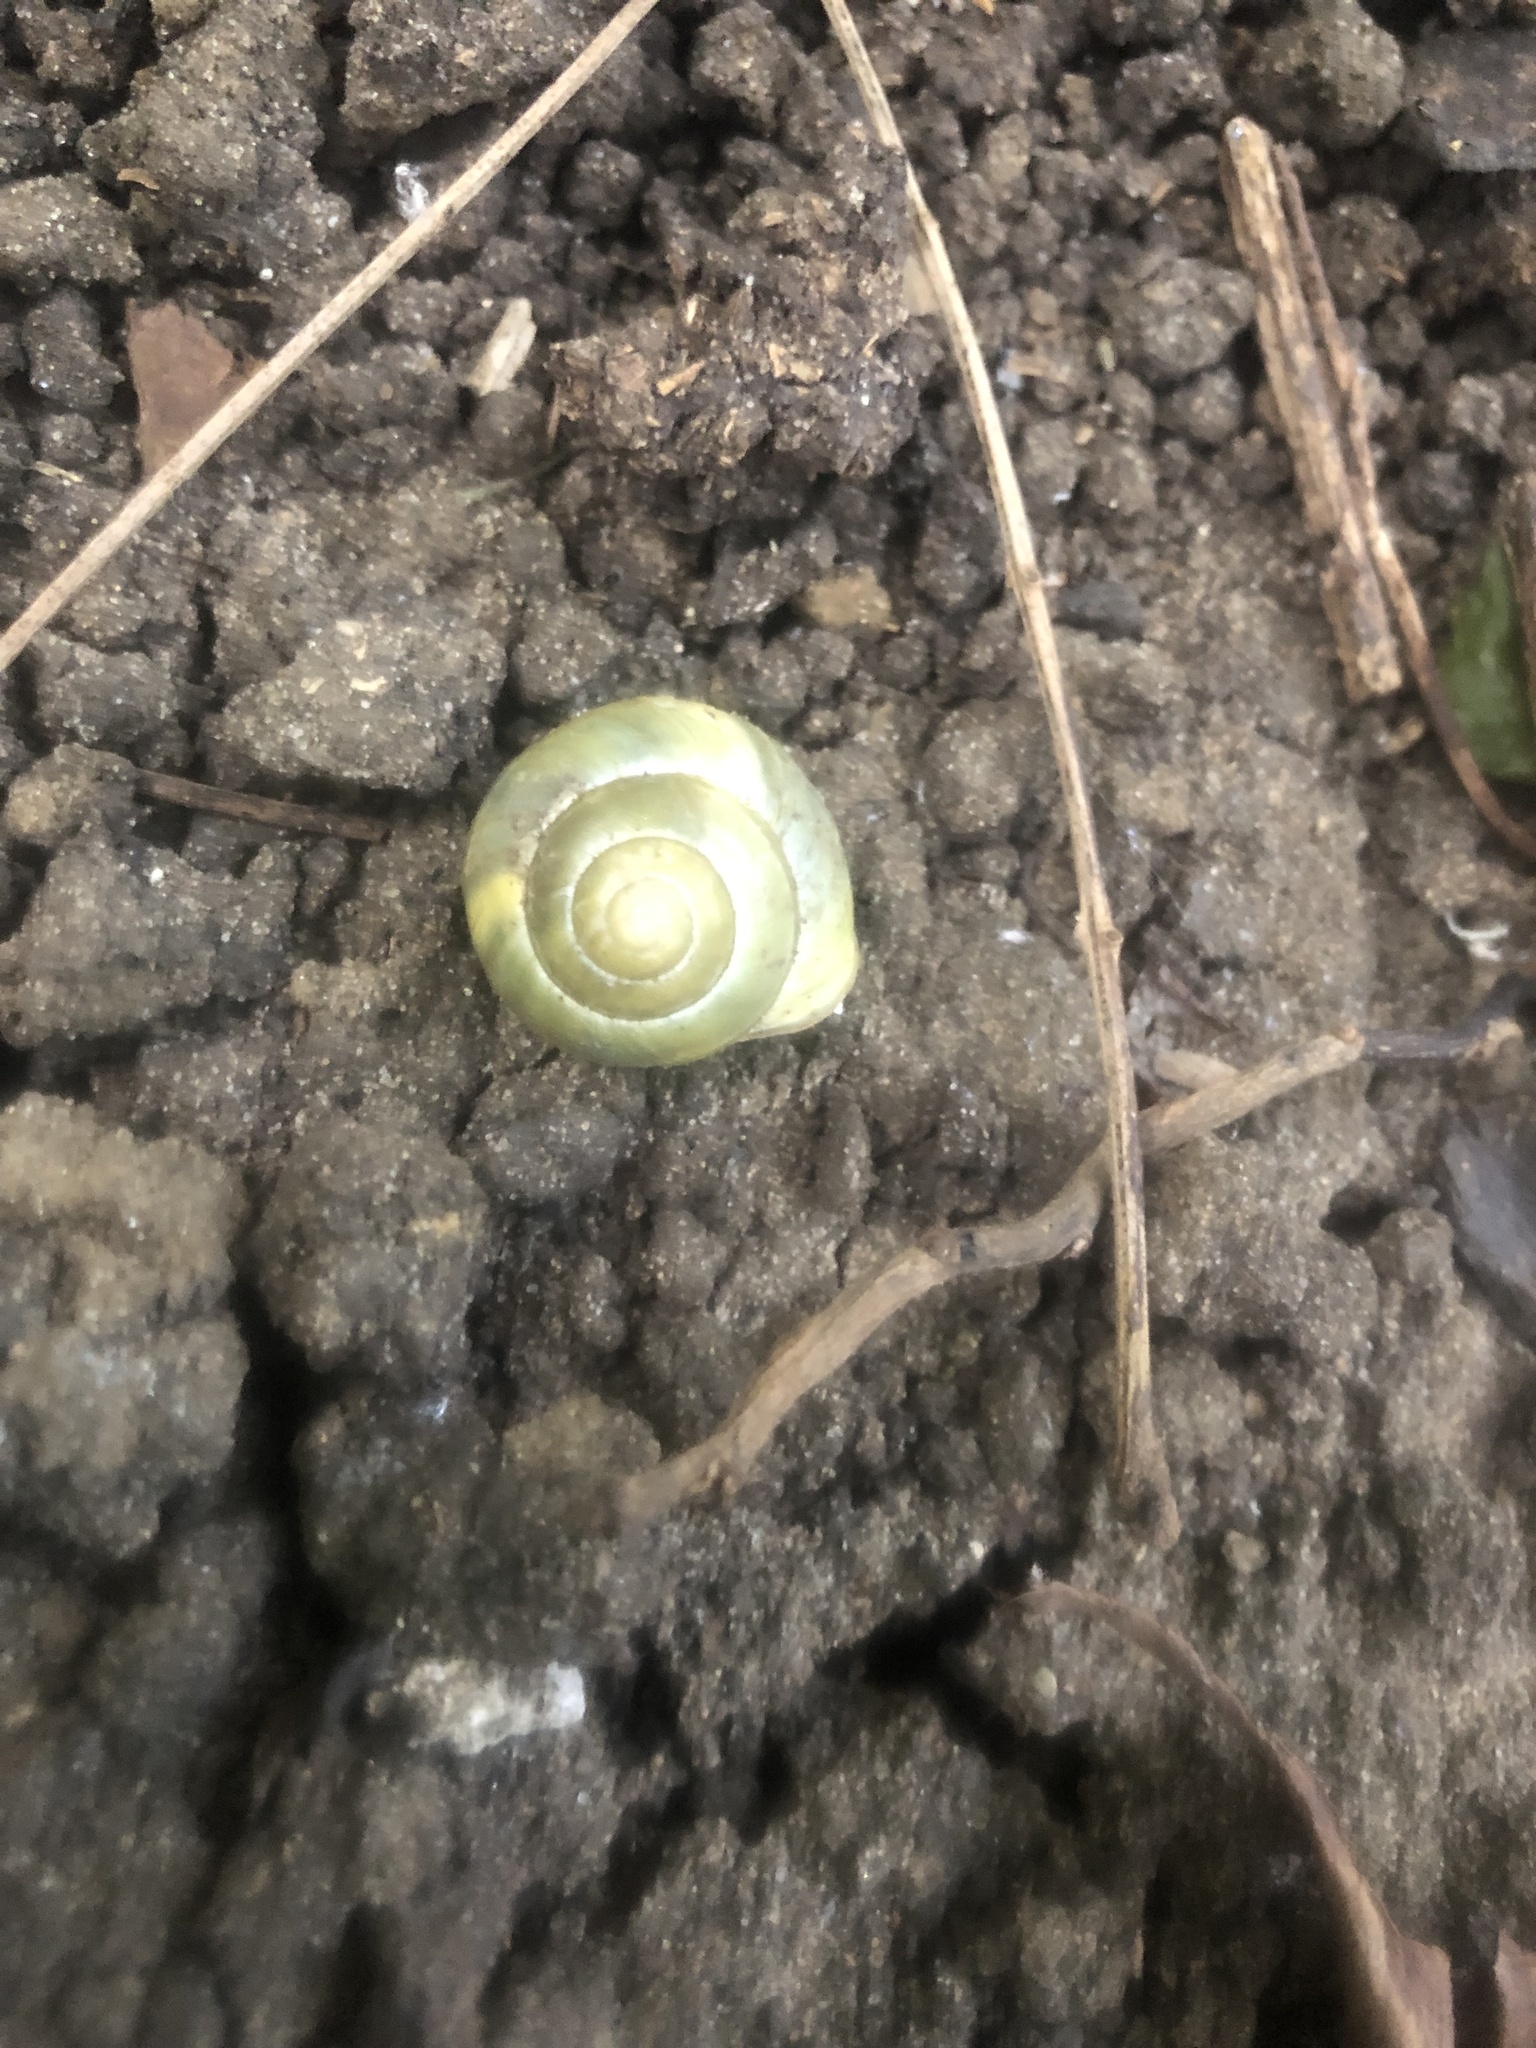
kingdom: Animalia
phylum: Mollusca
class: Gastropoda
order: Stylommatophora
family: Helicidae
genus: Cepaea
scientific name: Cepaea hortensis
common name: White-lip gardensnail
